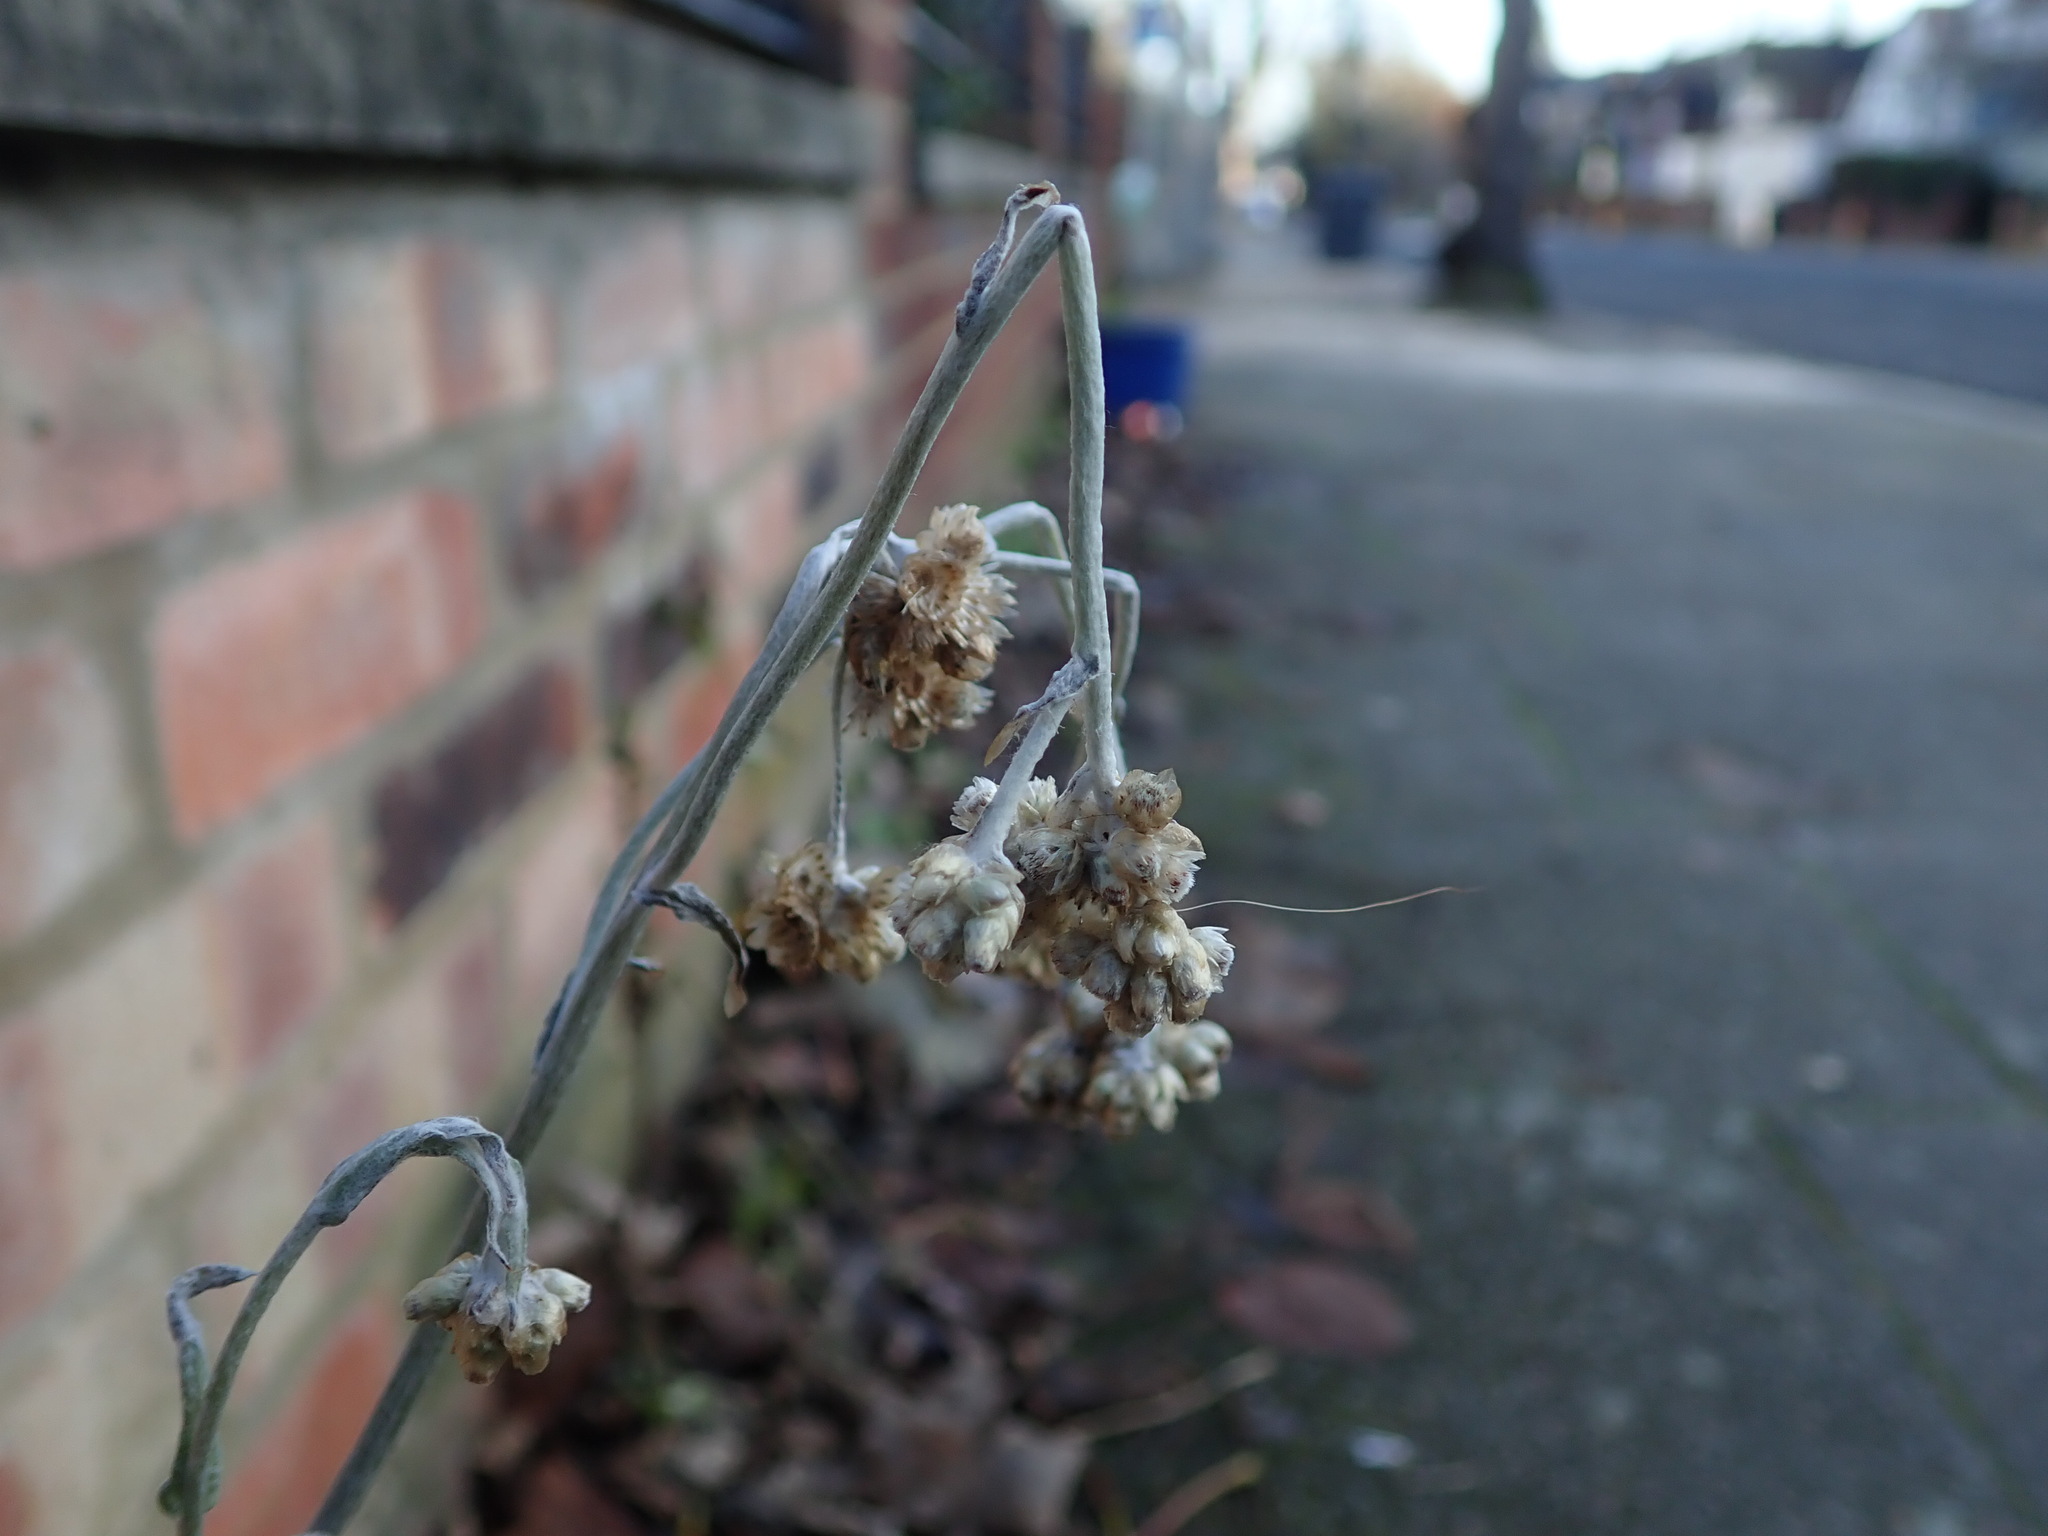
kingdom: Plantae
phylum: Tracheophyta
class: Magnoliopsida
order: Asterales
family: Asteraceae
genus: Helichrysum
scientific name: Helichrysum luteoalbum
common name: Daisy
